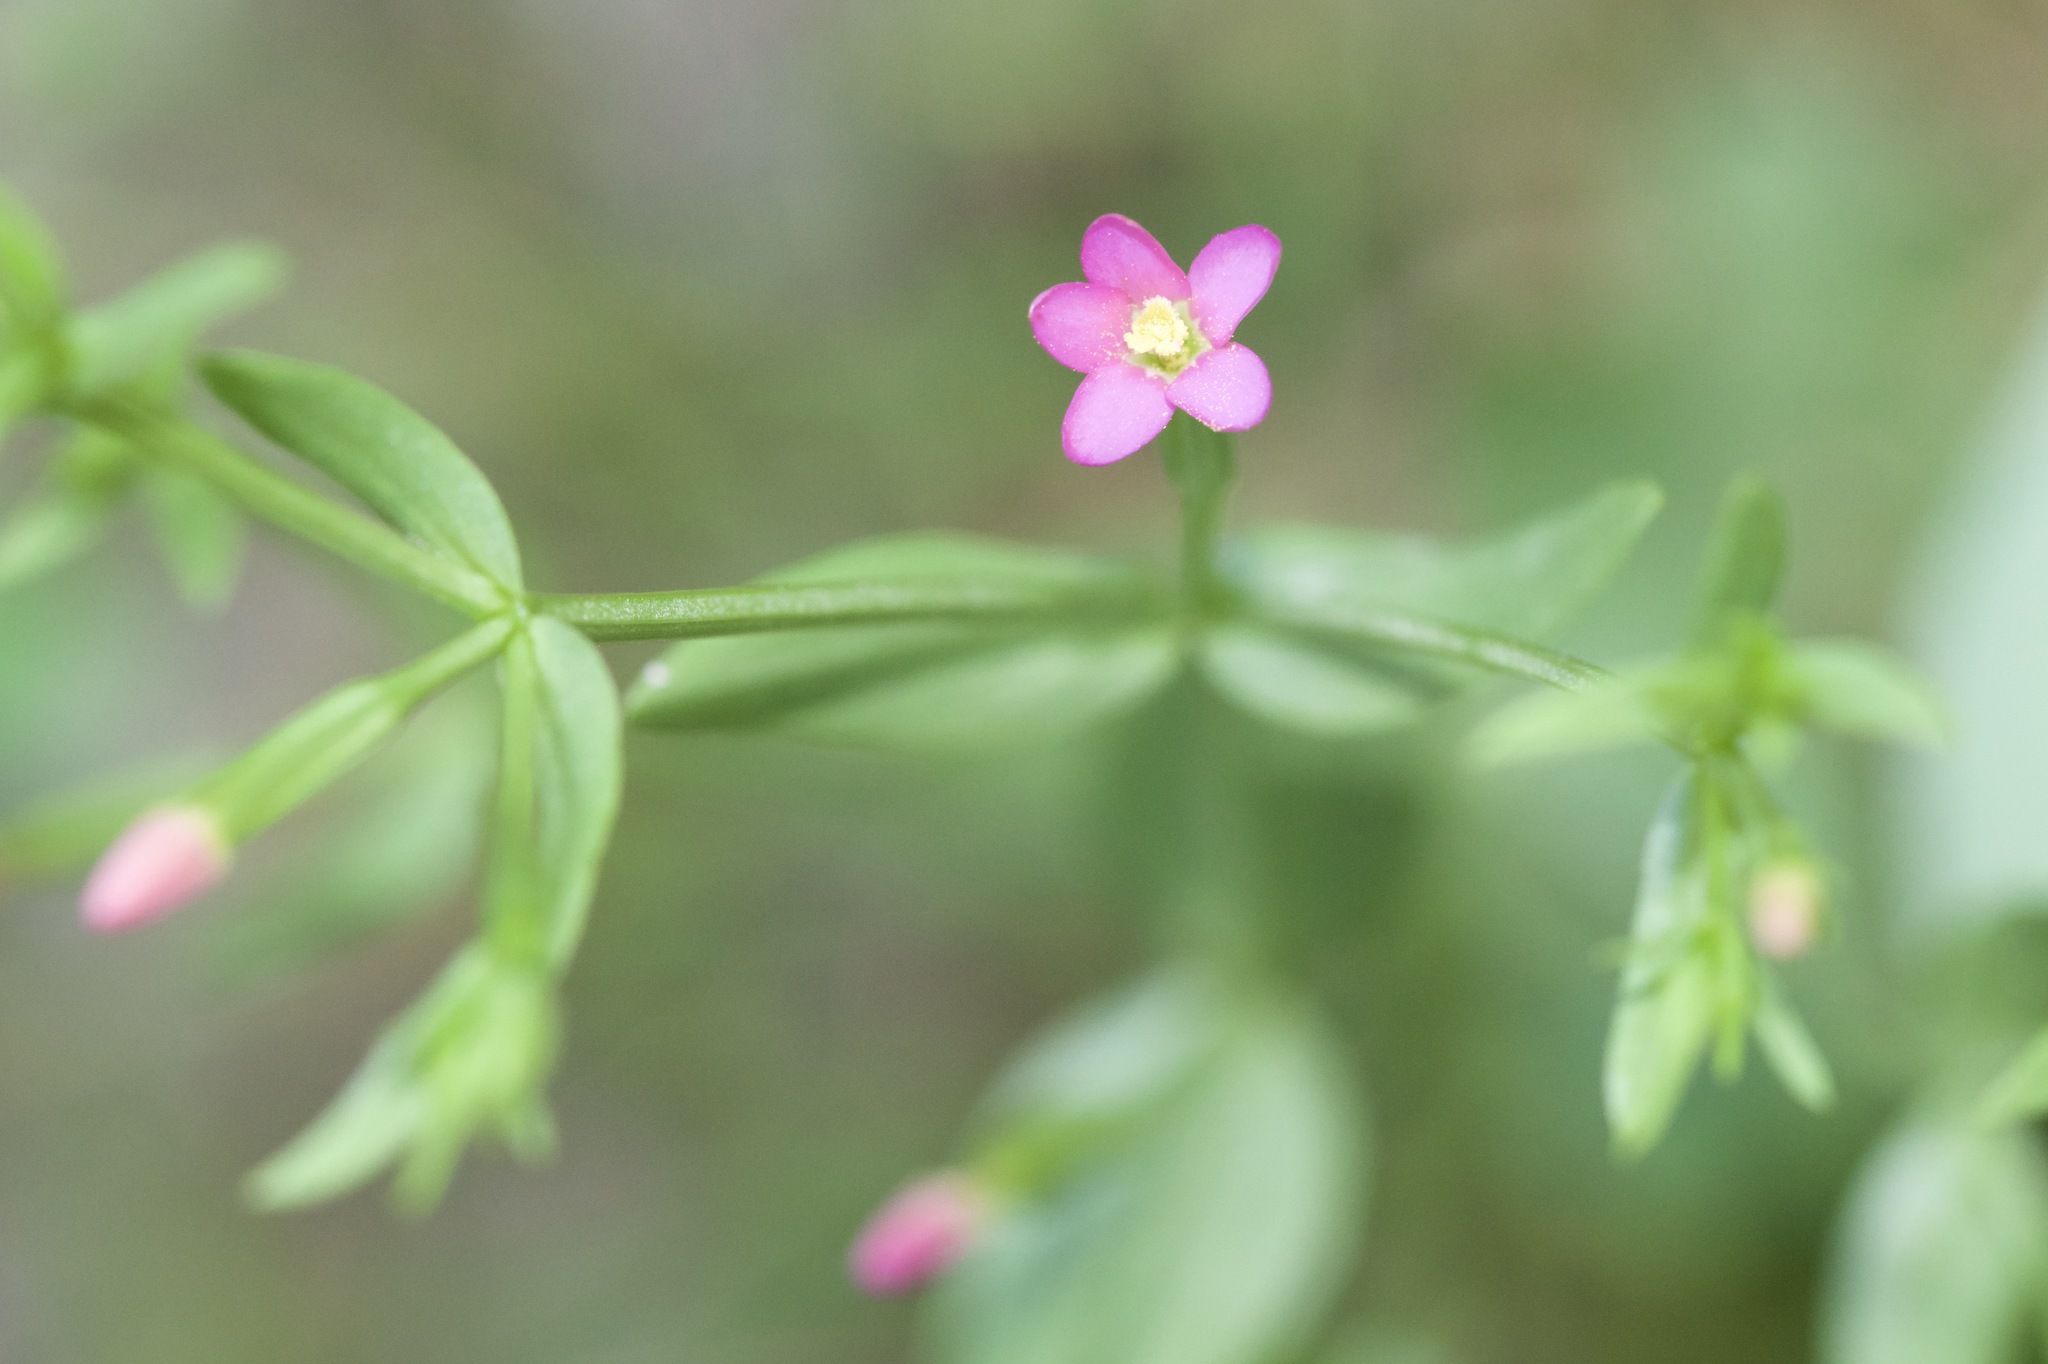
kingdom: Plantae
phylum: Tracheophyta
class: Magnoliopsida
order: Gentianales
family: Gentianaceae
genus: Centaurium
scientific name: Centaurium pulchellum
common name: Lesser centaury
